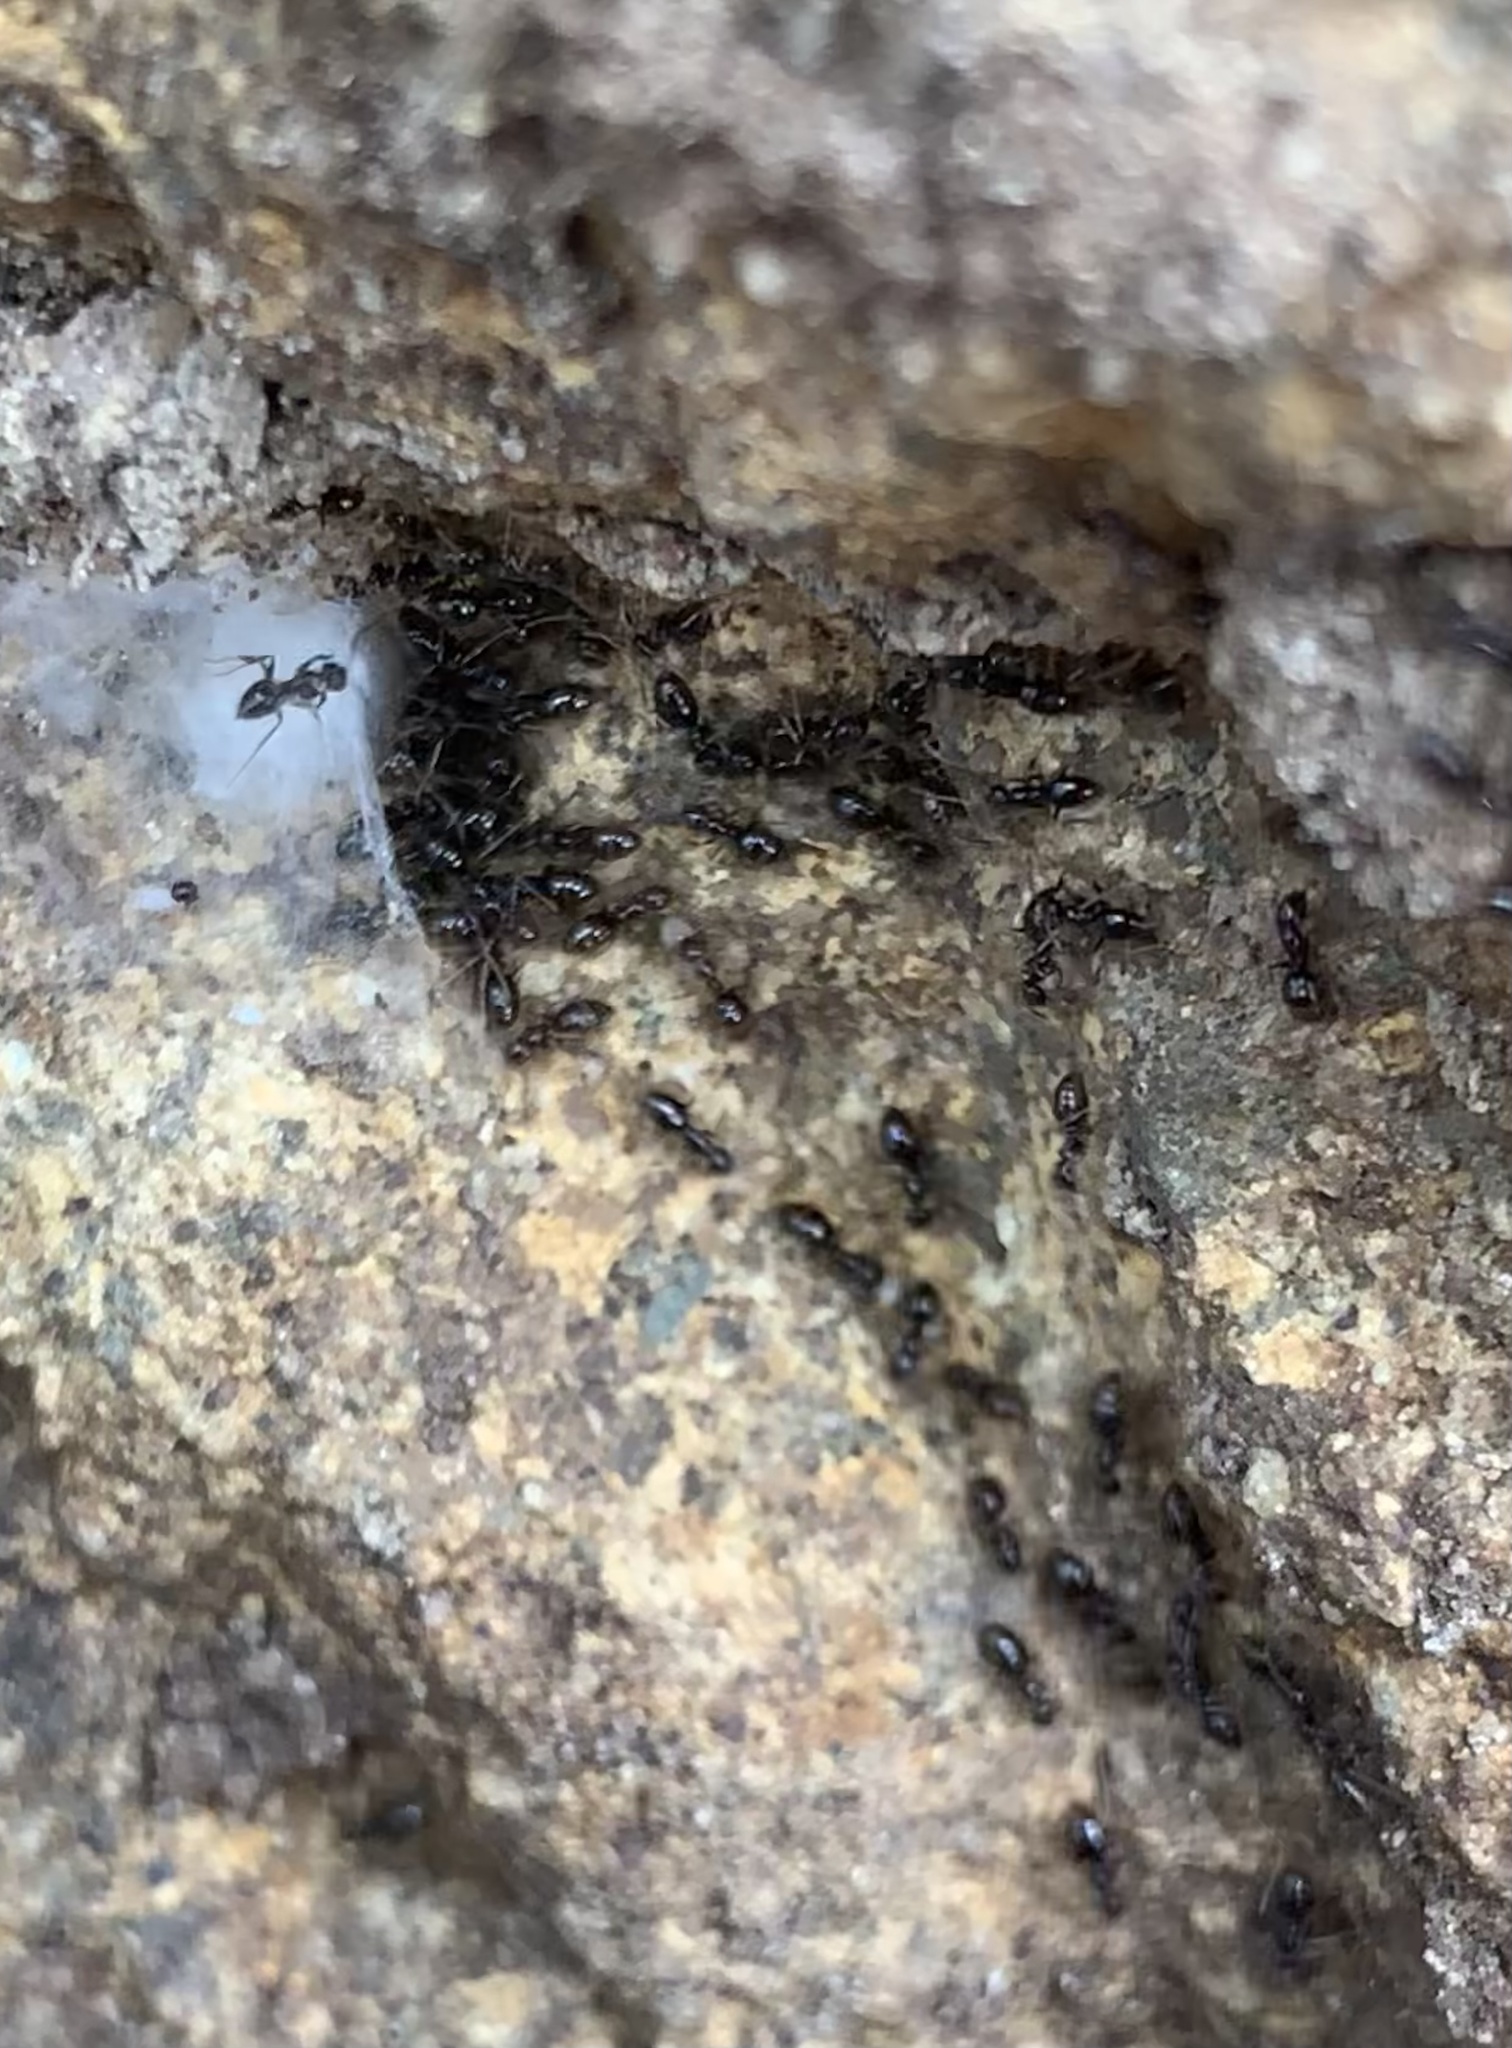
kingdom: Animalia
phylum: Arthropoda
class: Insecta
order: Hymenoptera
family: Formicidae
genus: Brachymyrmex
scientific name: Brachymyrmex patagonicus
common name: Dark rover ant
